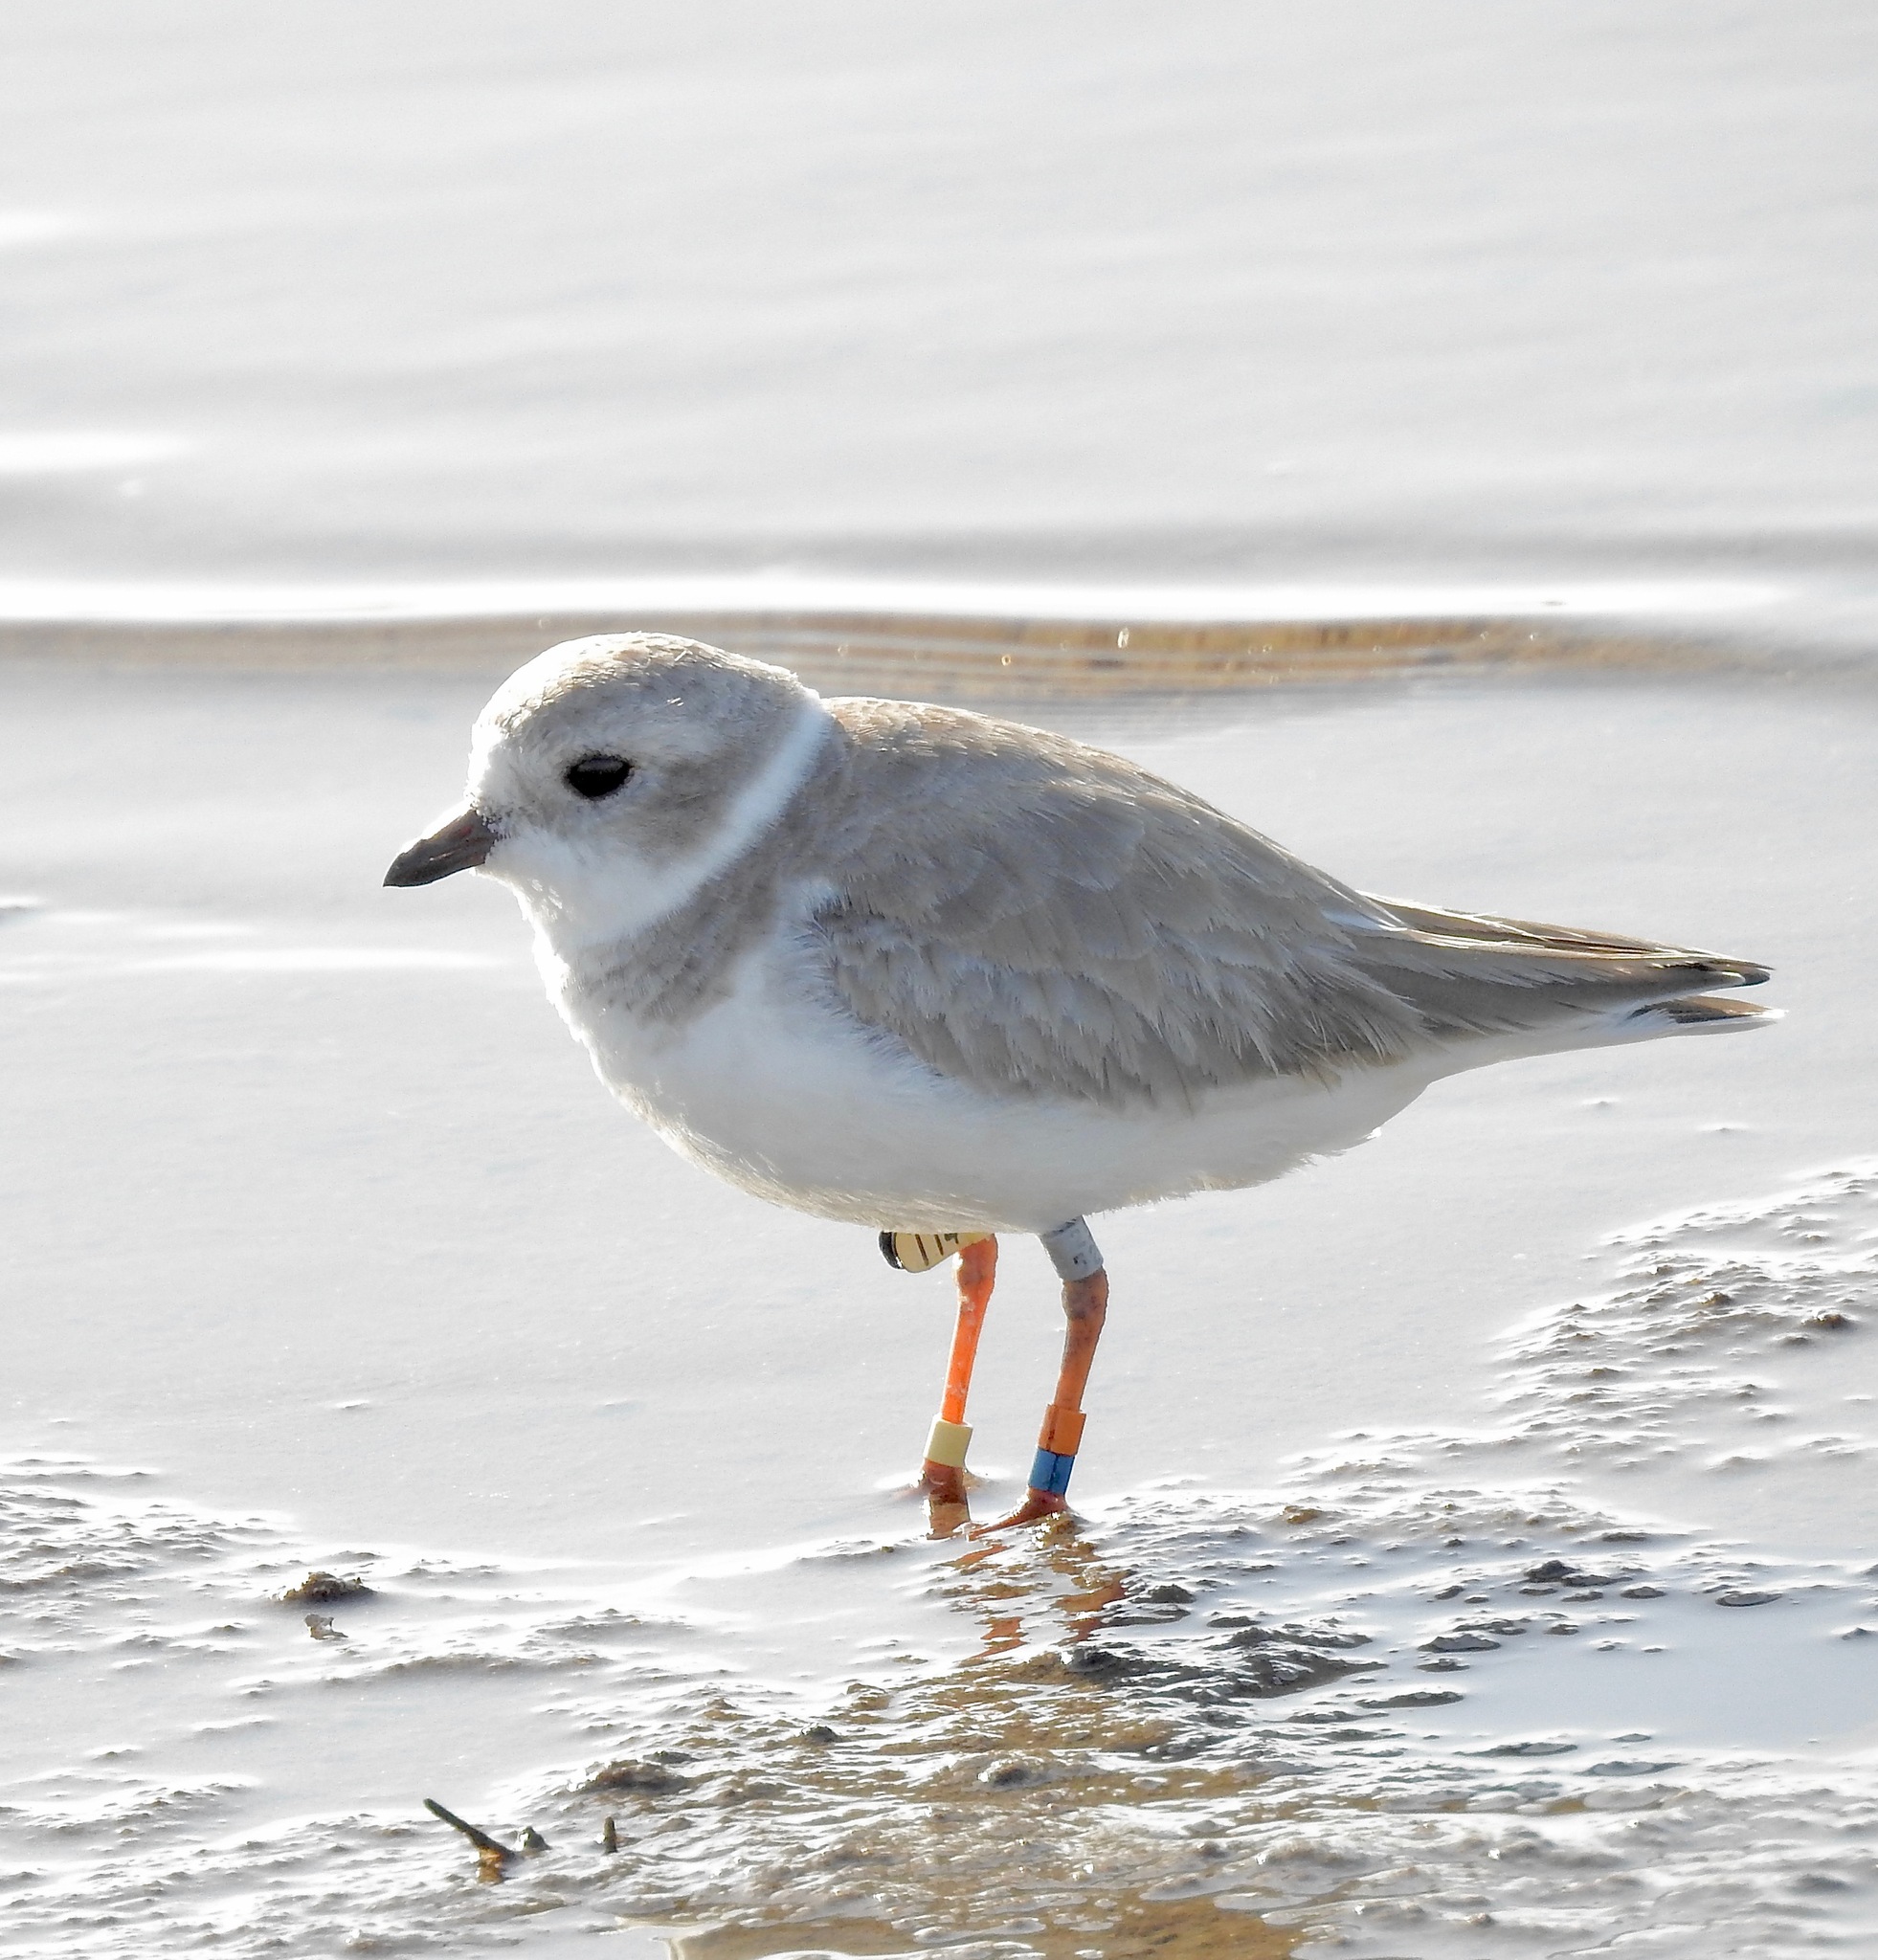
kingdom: Animalia
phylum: Chordata
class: Aves
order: Charadriiformes
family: Charadriidae
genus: Charadrius
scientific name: Charadrius melodus
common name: Piping plover
